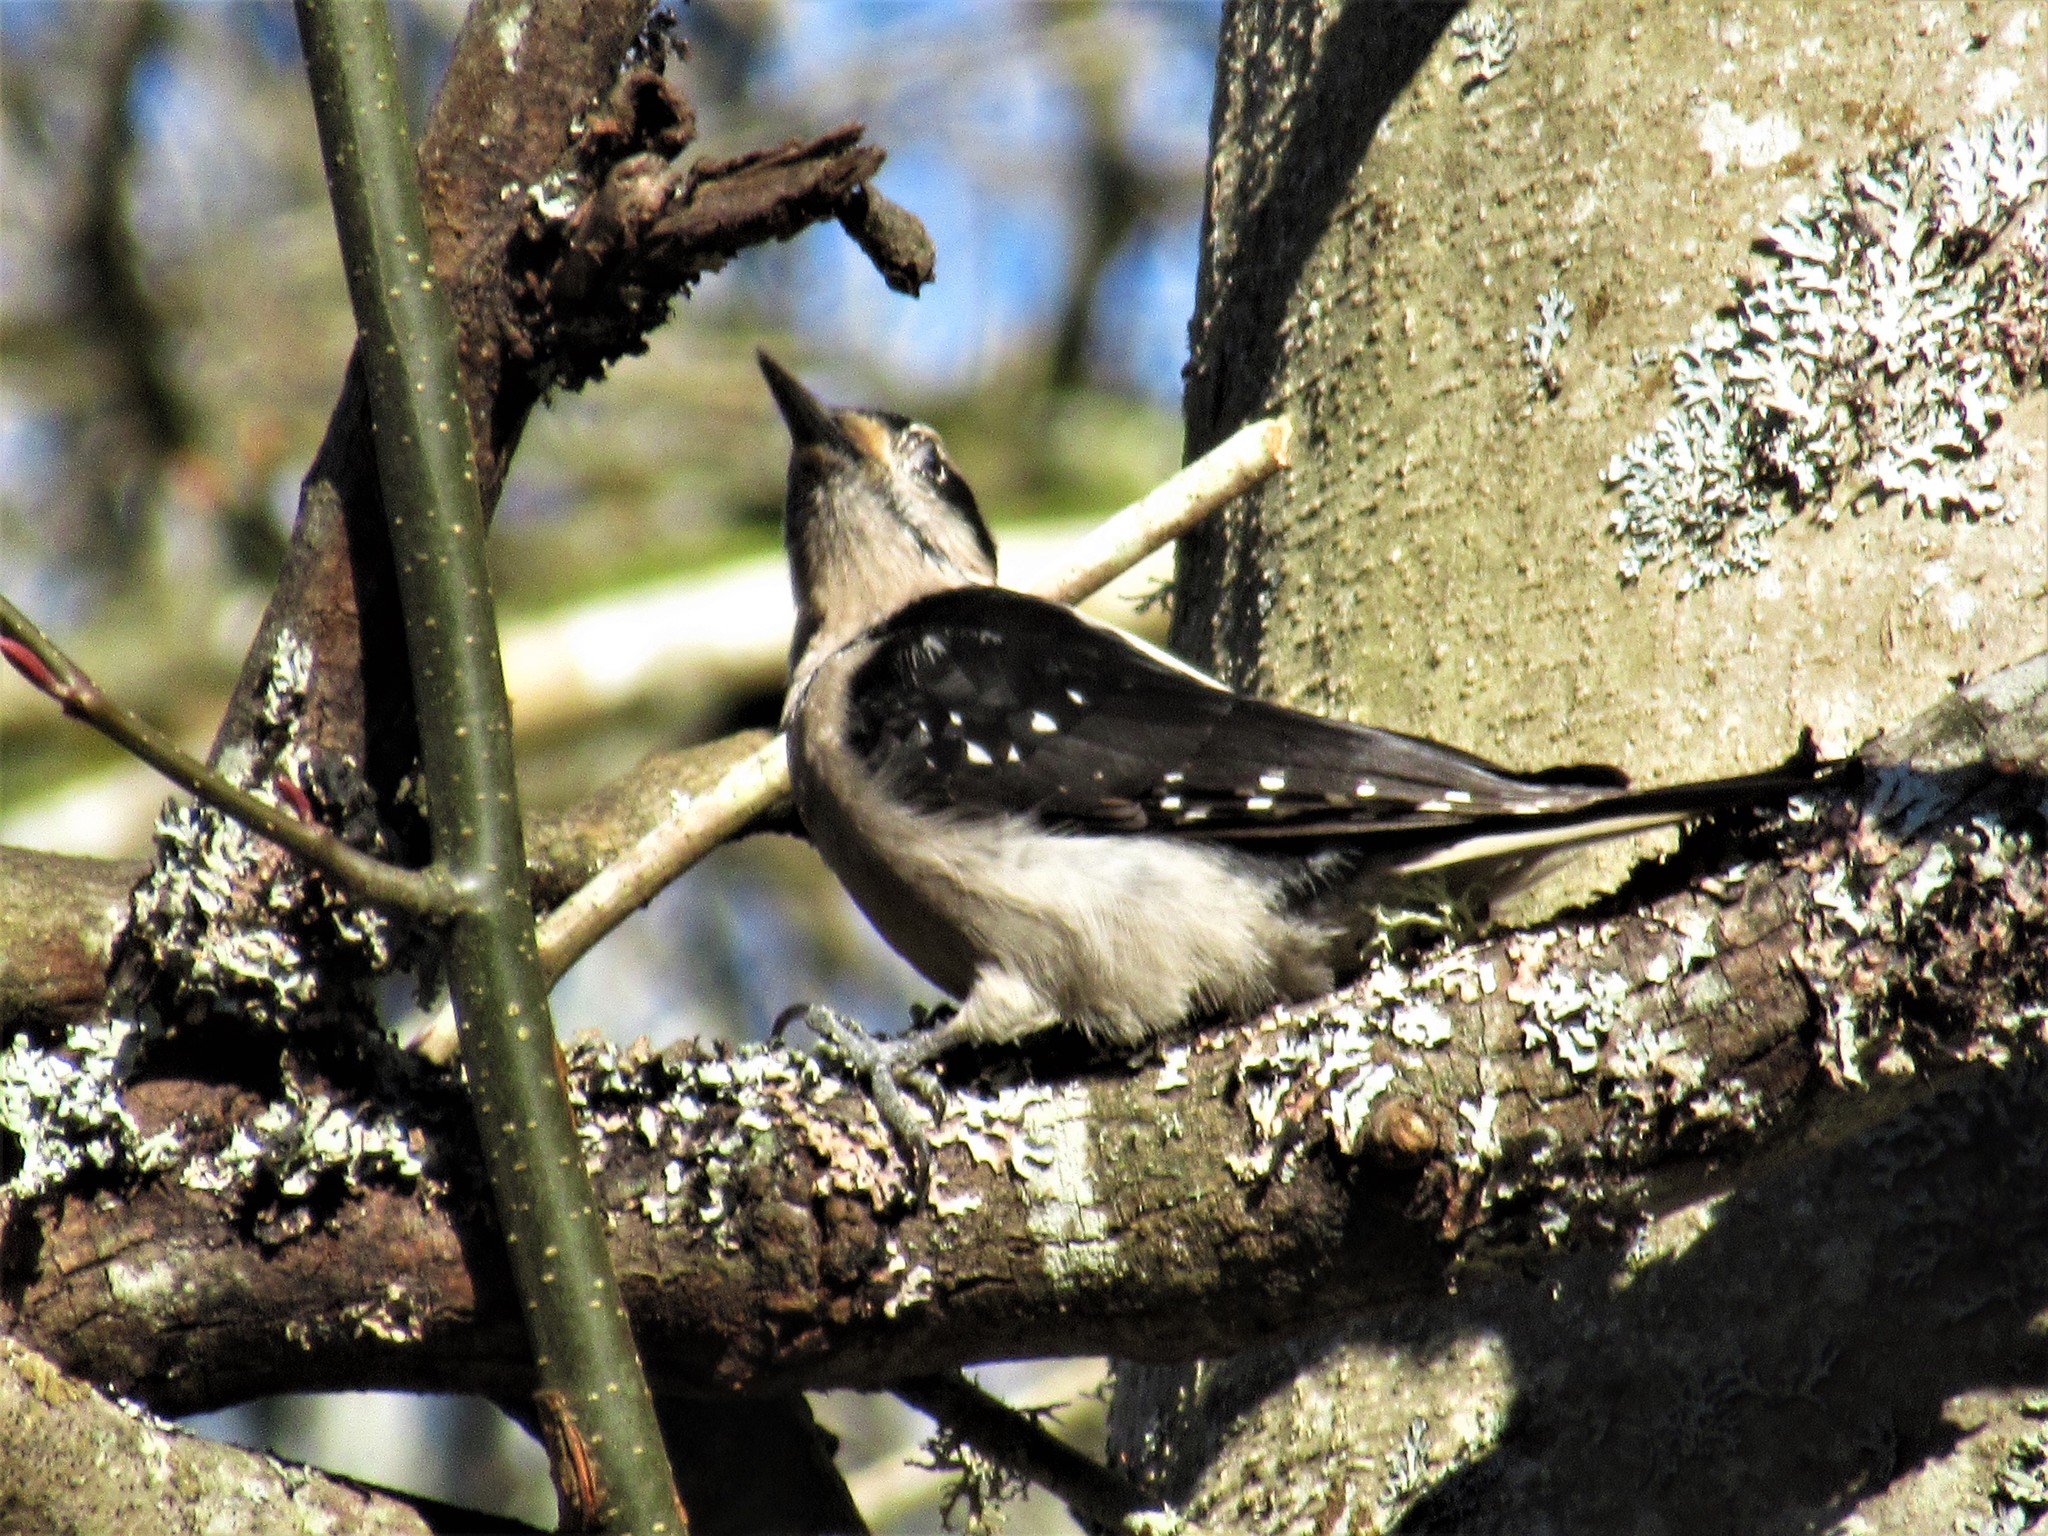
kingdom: Animalia
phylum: Chordata
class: Aves
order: Piciformes
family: Picidae
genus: Leuconotopicus
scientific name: Leuconotopicus villosus
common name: Hairy woodpecker
